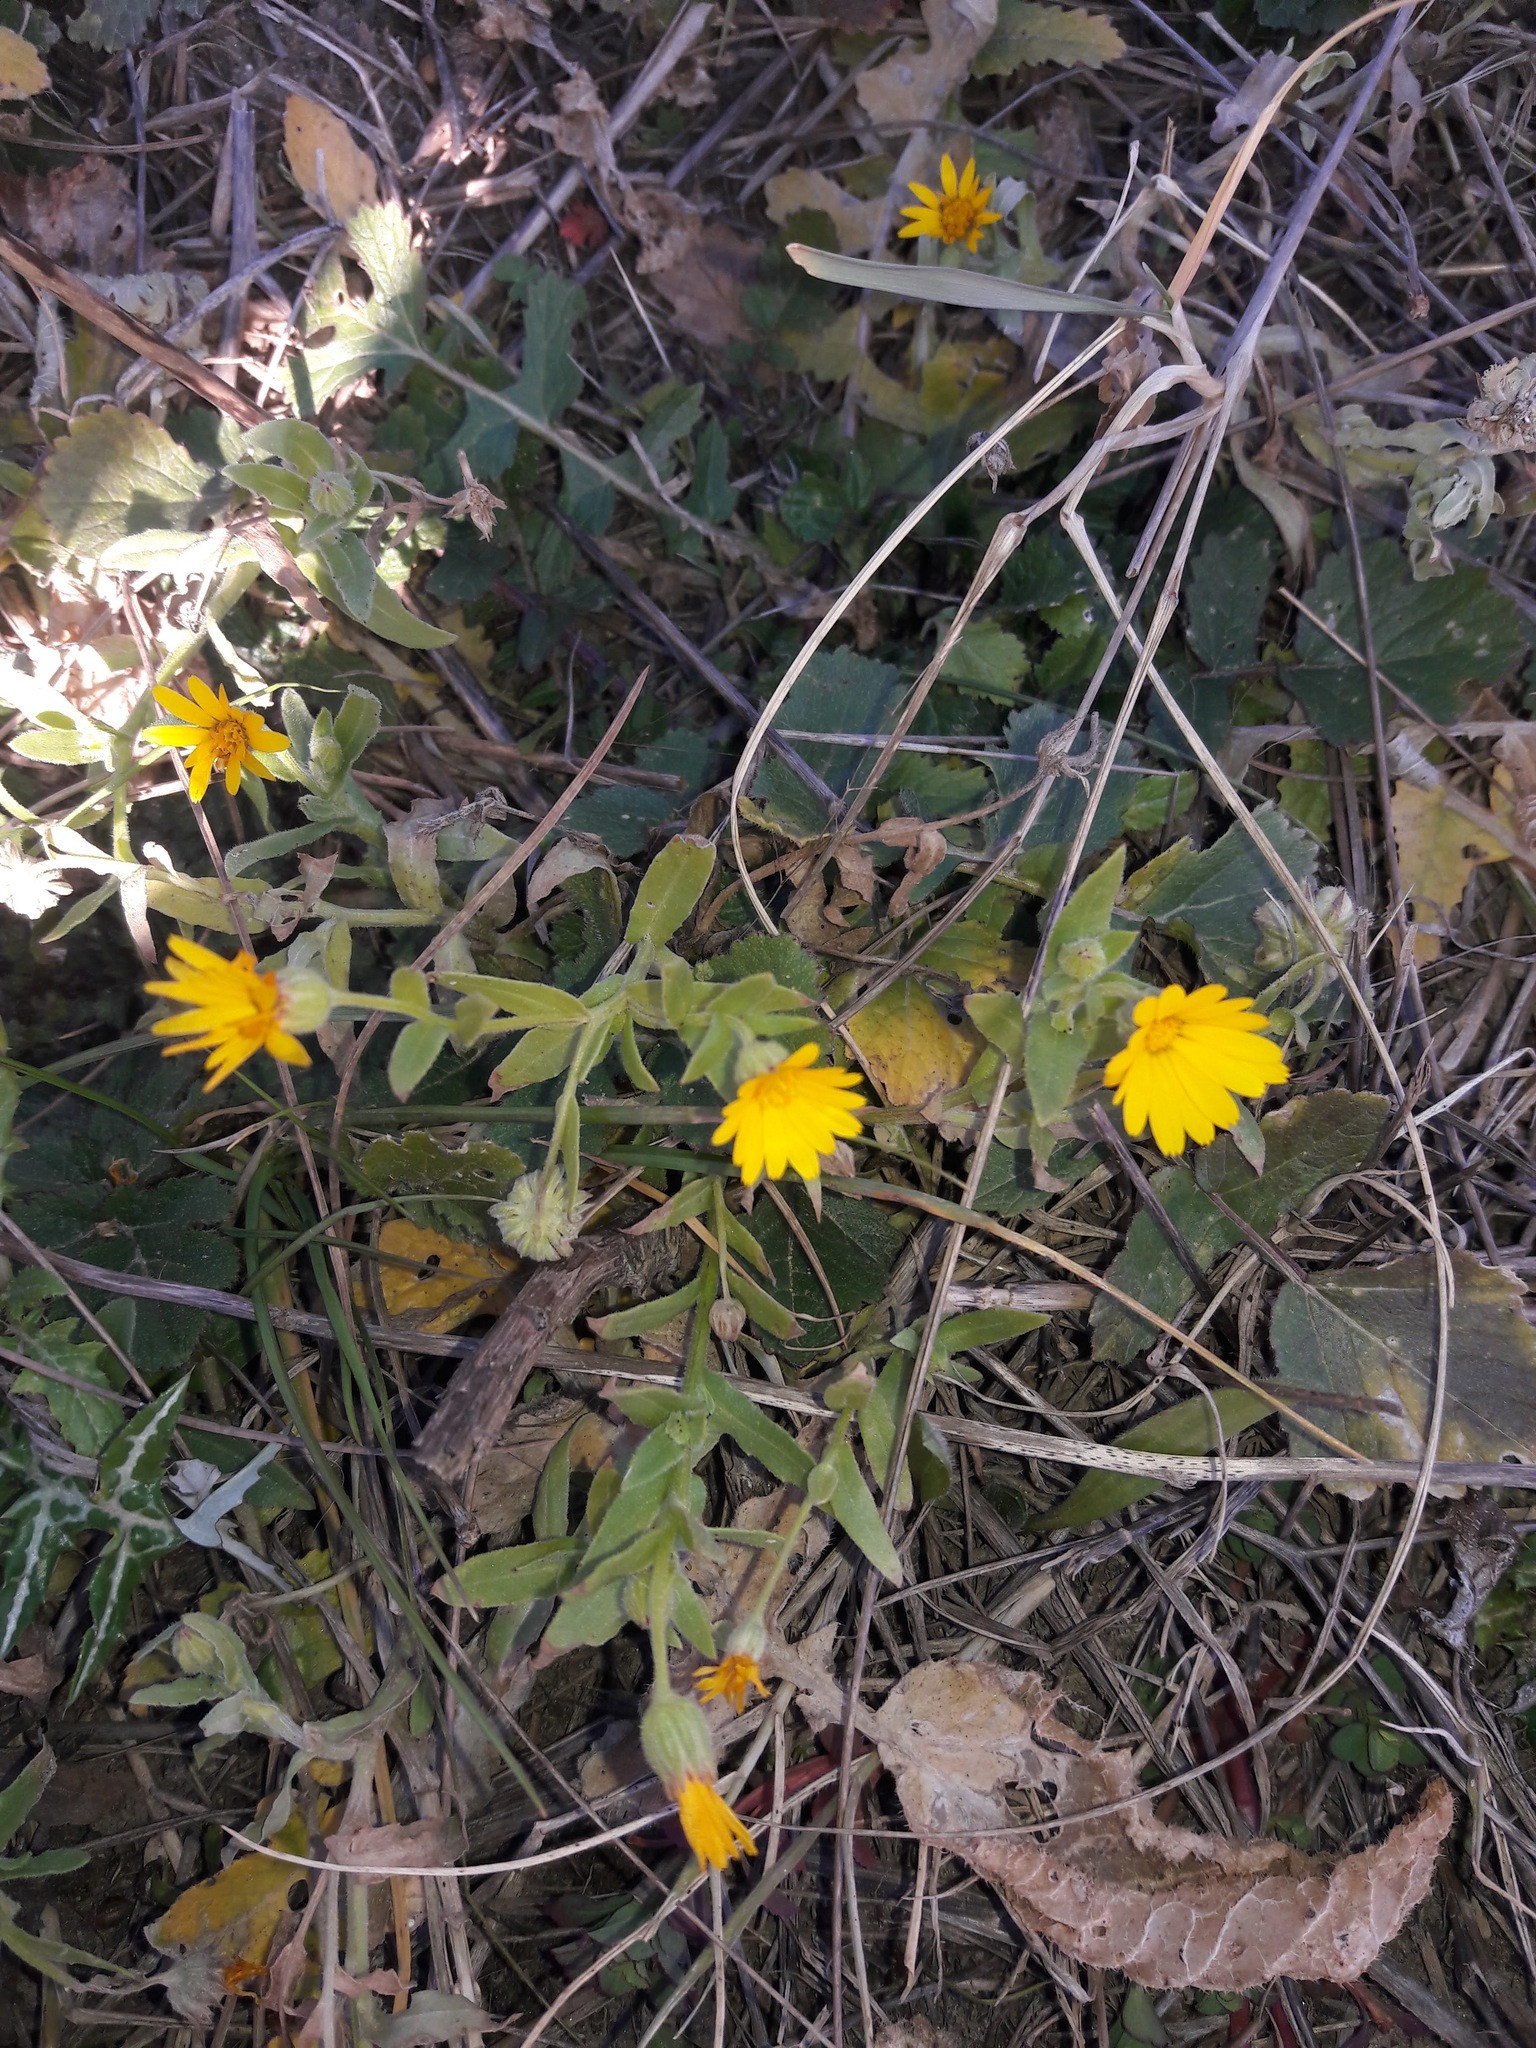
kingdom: Plantae
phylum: Tracheophyta
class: Magnoliopsida
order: Asterales
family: Asteraceae
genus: Calendula
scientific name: Calendula arvensis
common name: Field marigold
